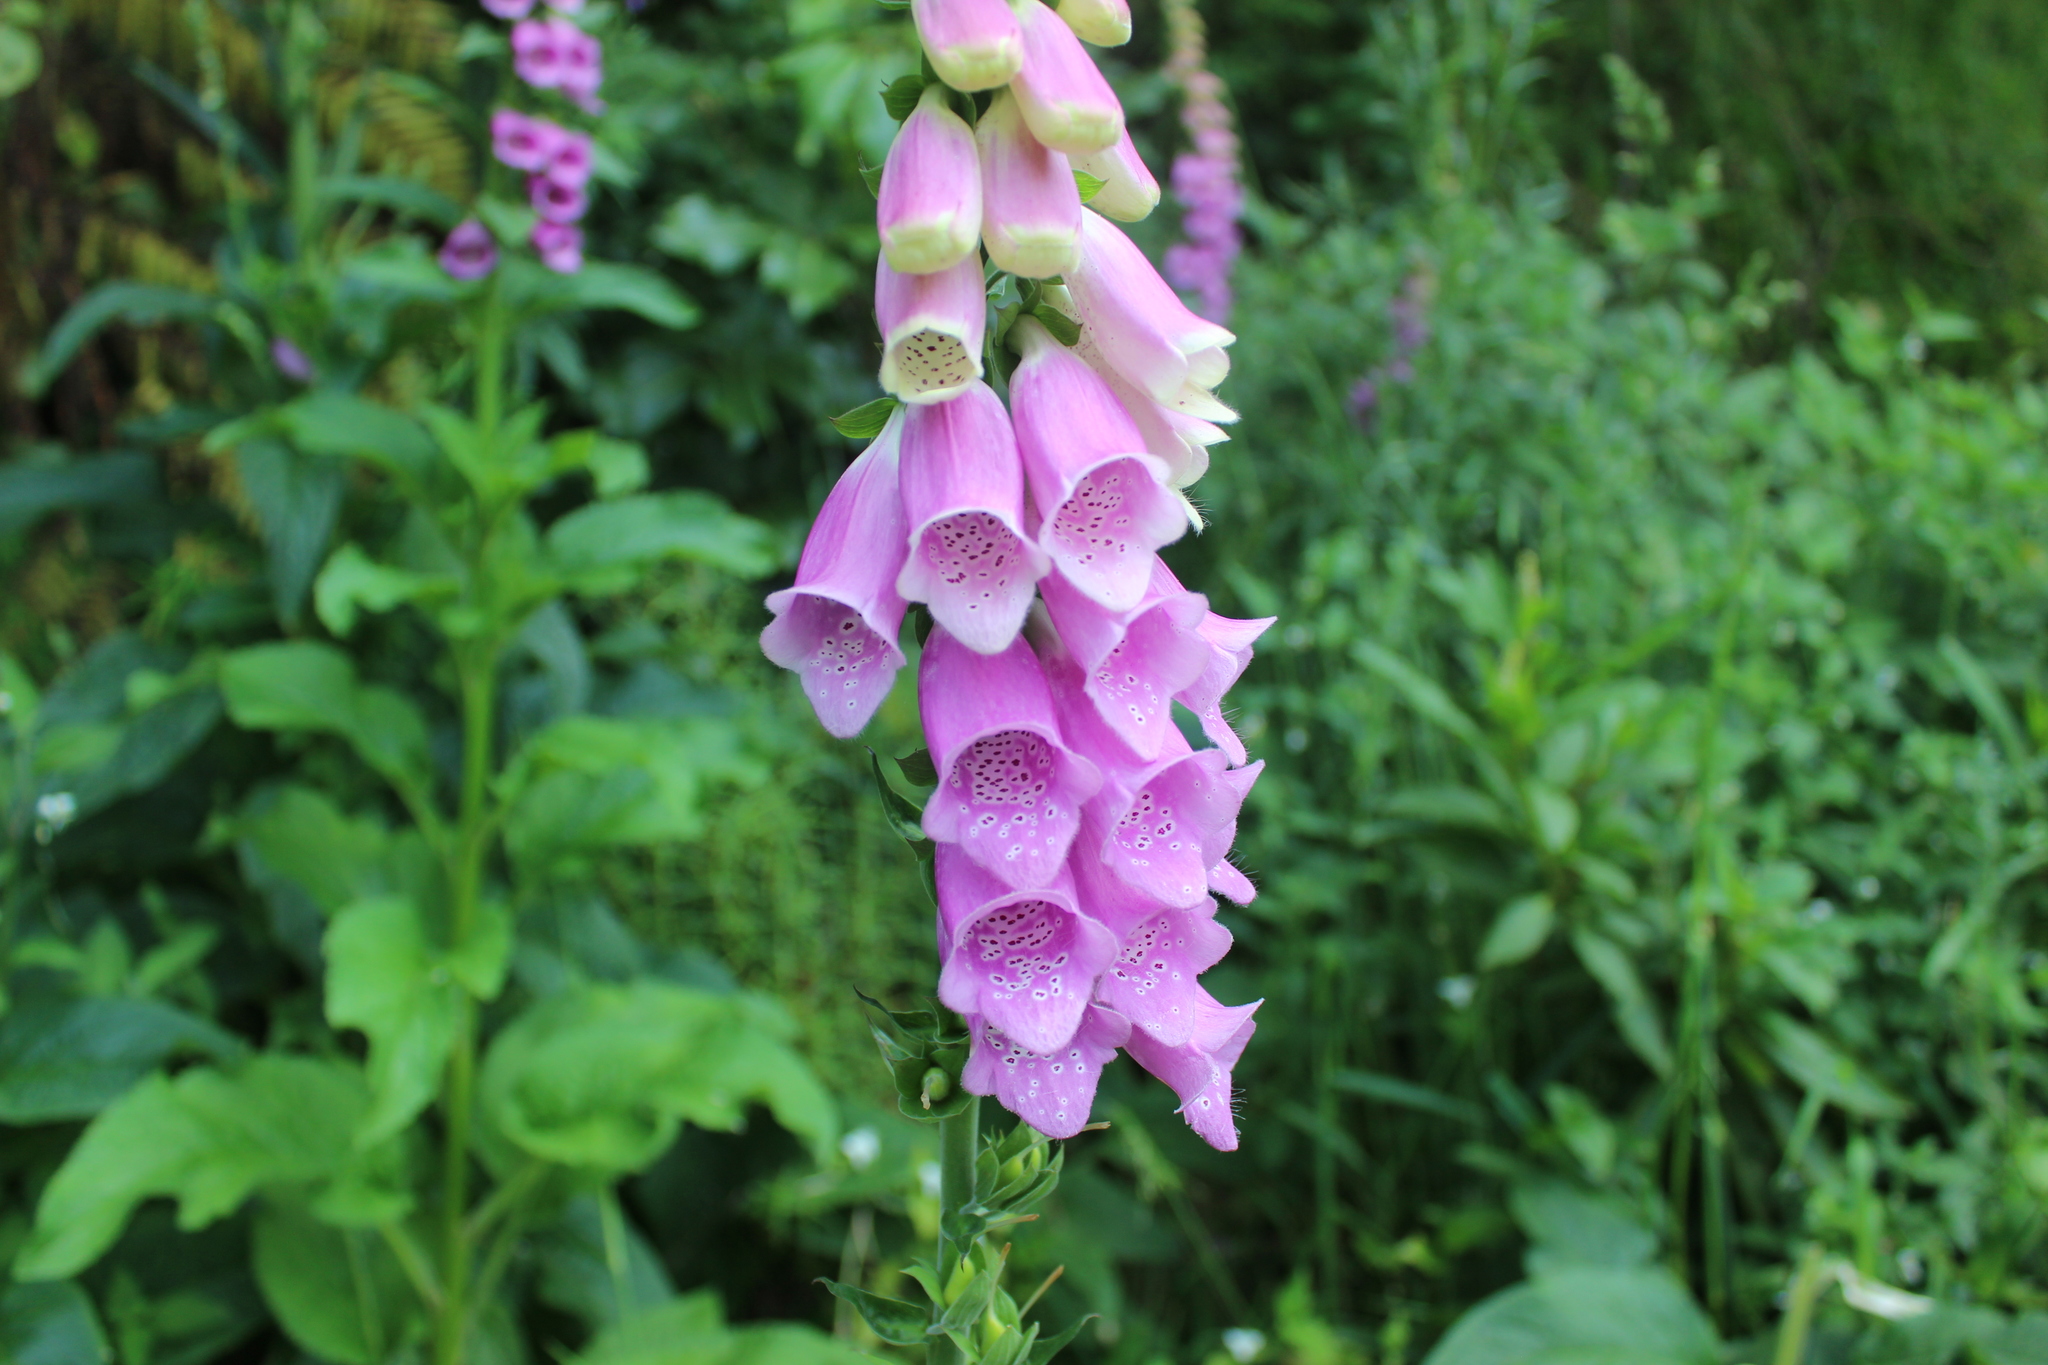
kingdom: Plantae
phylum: Tracheophyta
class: Magnoliopsida
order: Lamiales
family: Plantaginaceae
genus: Digitalis
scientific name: Digitalis purpurea
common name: Foxglove
